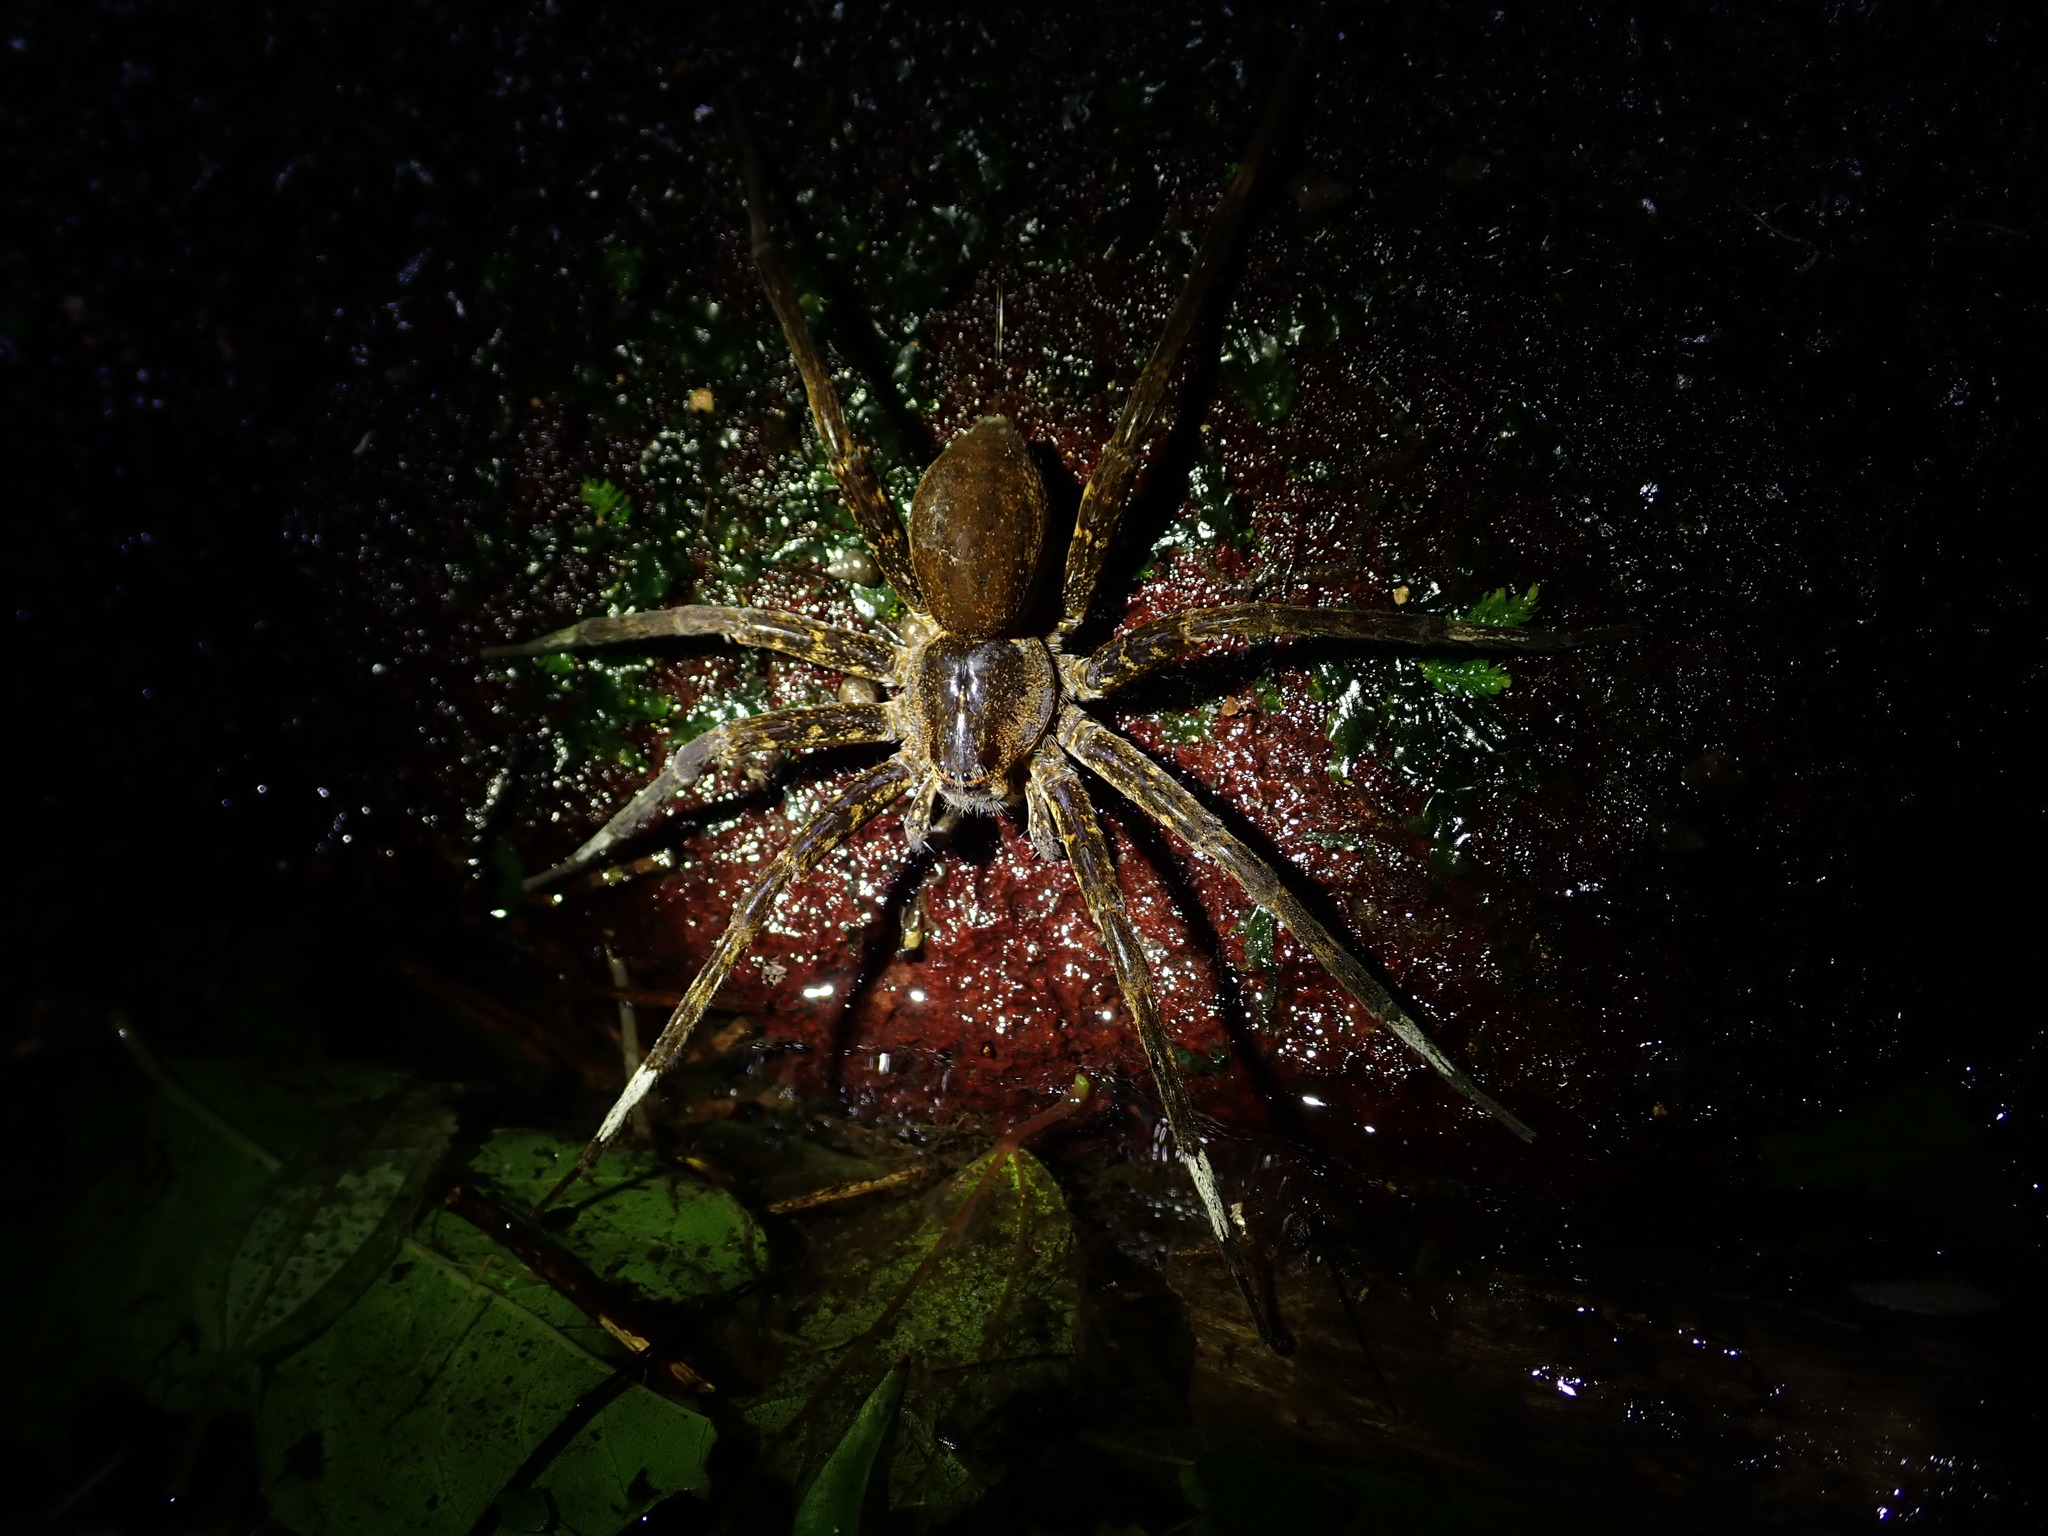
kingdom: Animalia
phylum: Arthropoda
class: Arachnida
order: Araneae
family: Pisauridae
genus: Dolomedes
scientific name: Dolomedes raptor
